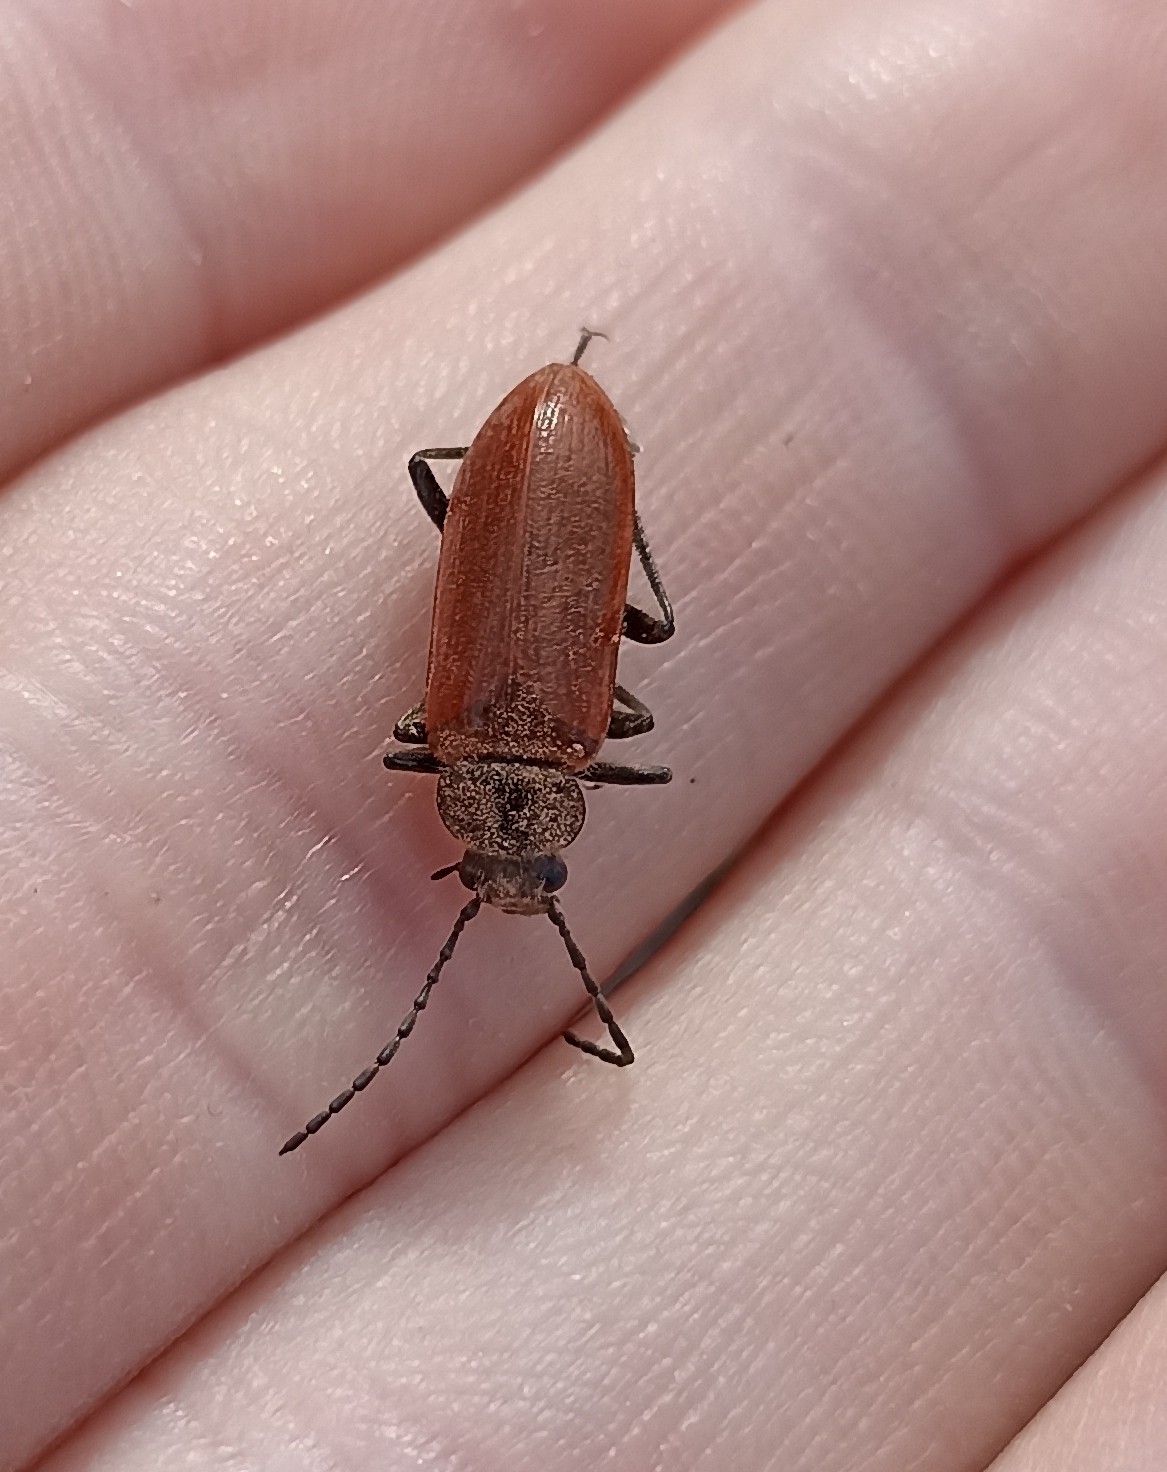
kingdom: Animalia
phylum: Arthropoda
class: Insecta
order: Coleoptera
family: Tenebrionidae
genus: Omophlus
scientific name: Omophlus lepturoides
